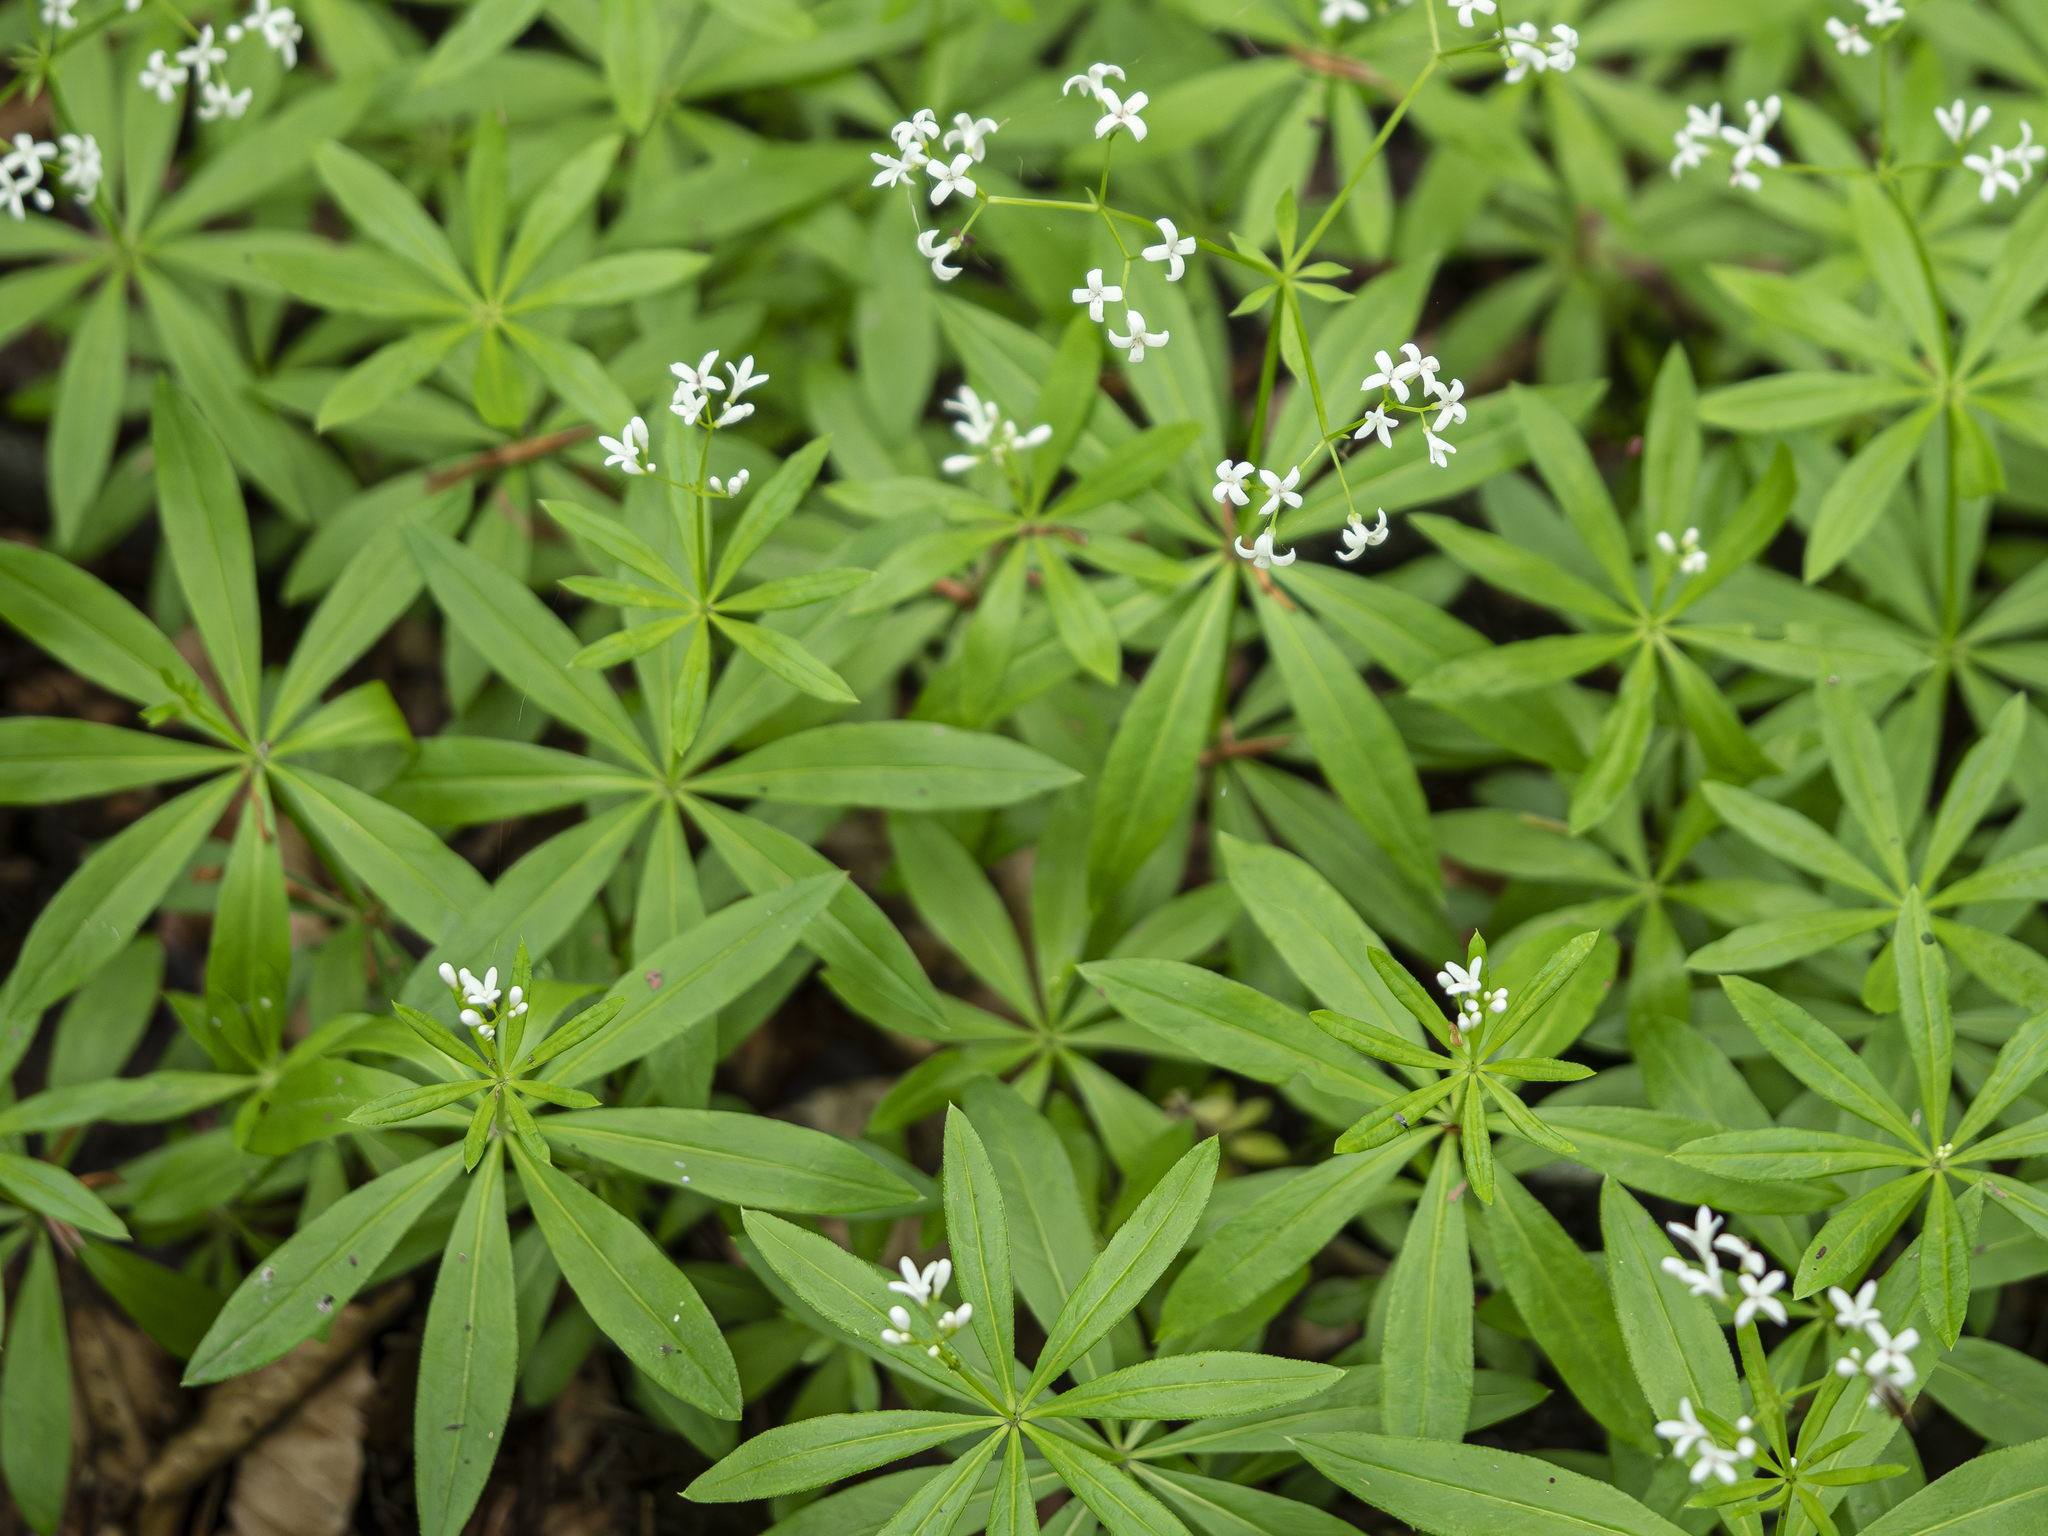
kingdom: Plantae
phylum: Tracheophyta
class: Magnoliopsida
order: Gentianales
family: Rubiaceae
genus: Galium
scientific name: Galium odoratum
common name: Sweet woodruff
